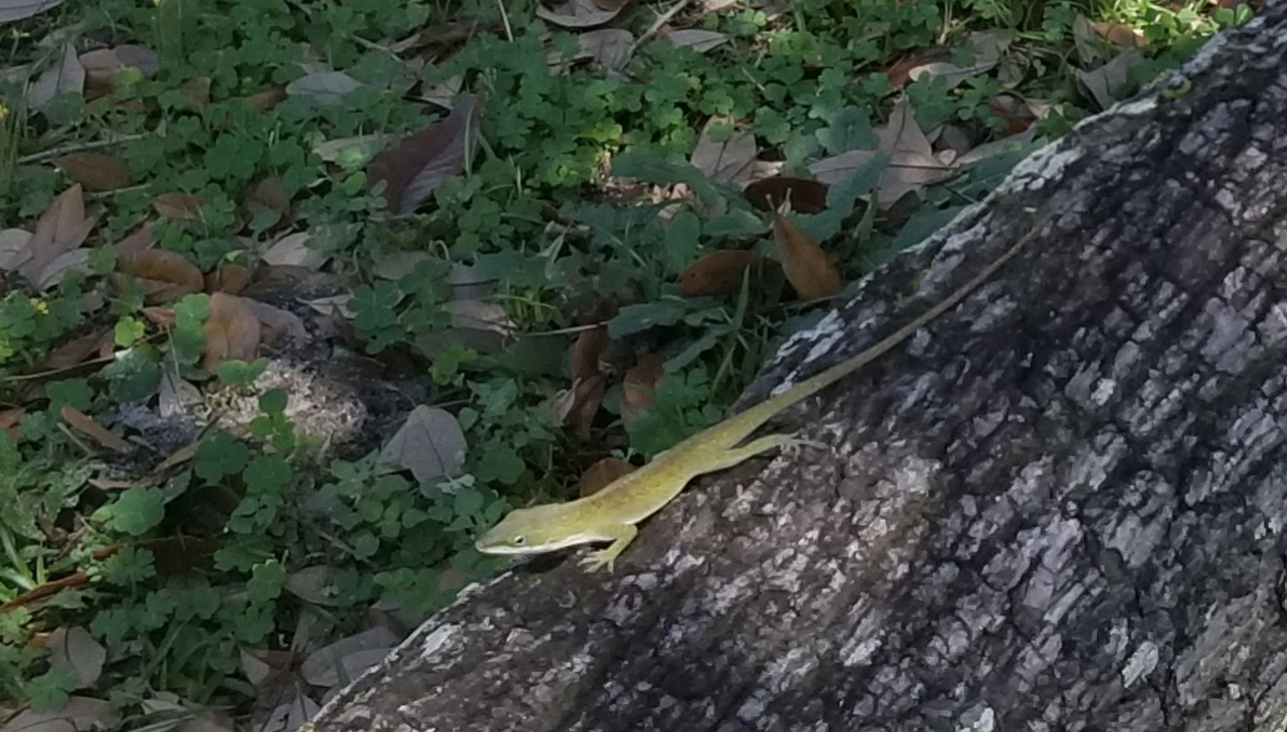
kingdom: Animalia
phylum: Chordata
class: Squamata
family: Dactyloidae
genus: Anolis
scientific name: Anolis carolinensis
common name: Green anole
